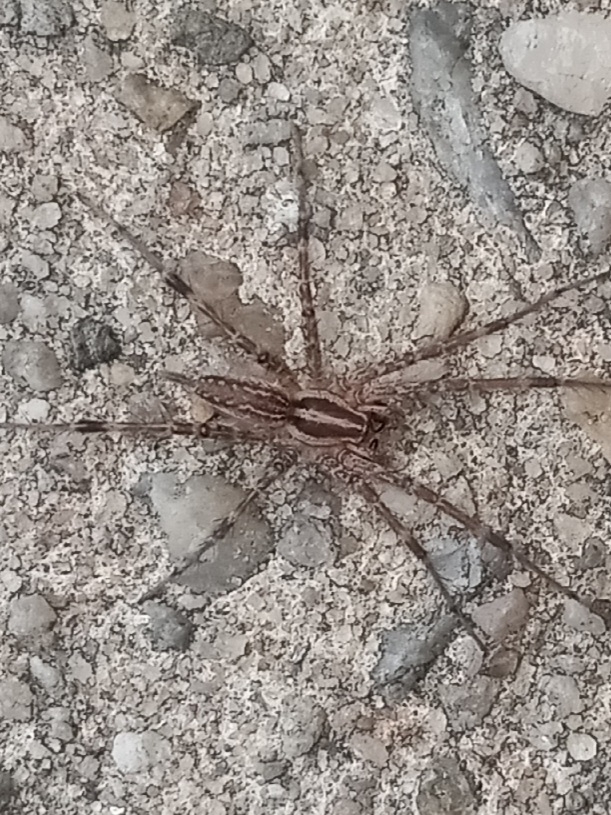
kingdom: Animalia
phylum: Arthropoda
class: Arachnida
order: Araneae
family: Agelenidae
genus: Agelenopsis
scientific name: Agelenopsis
